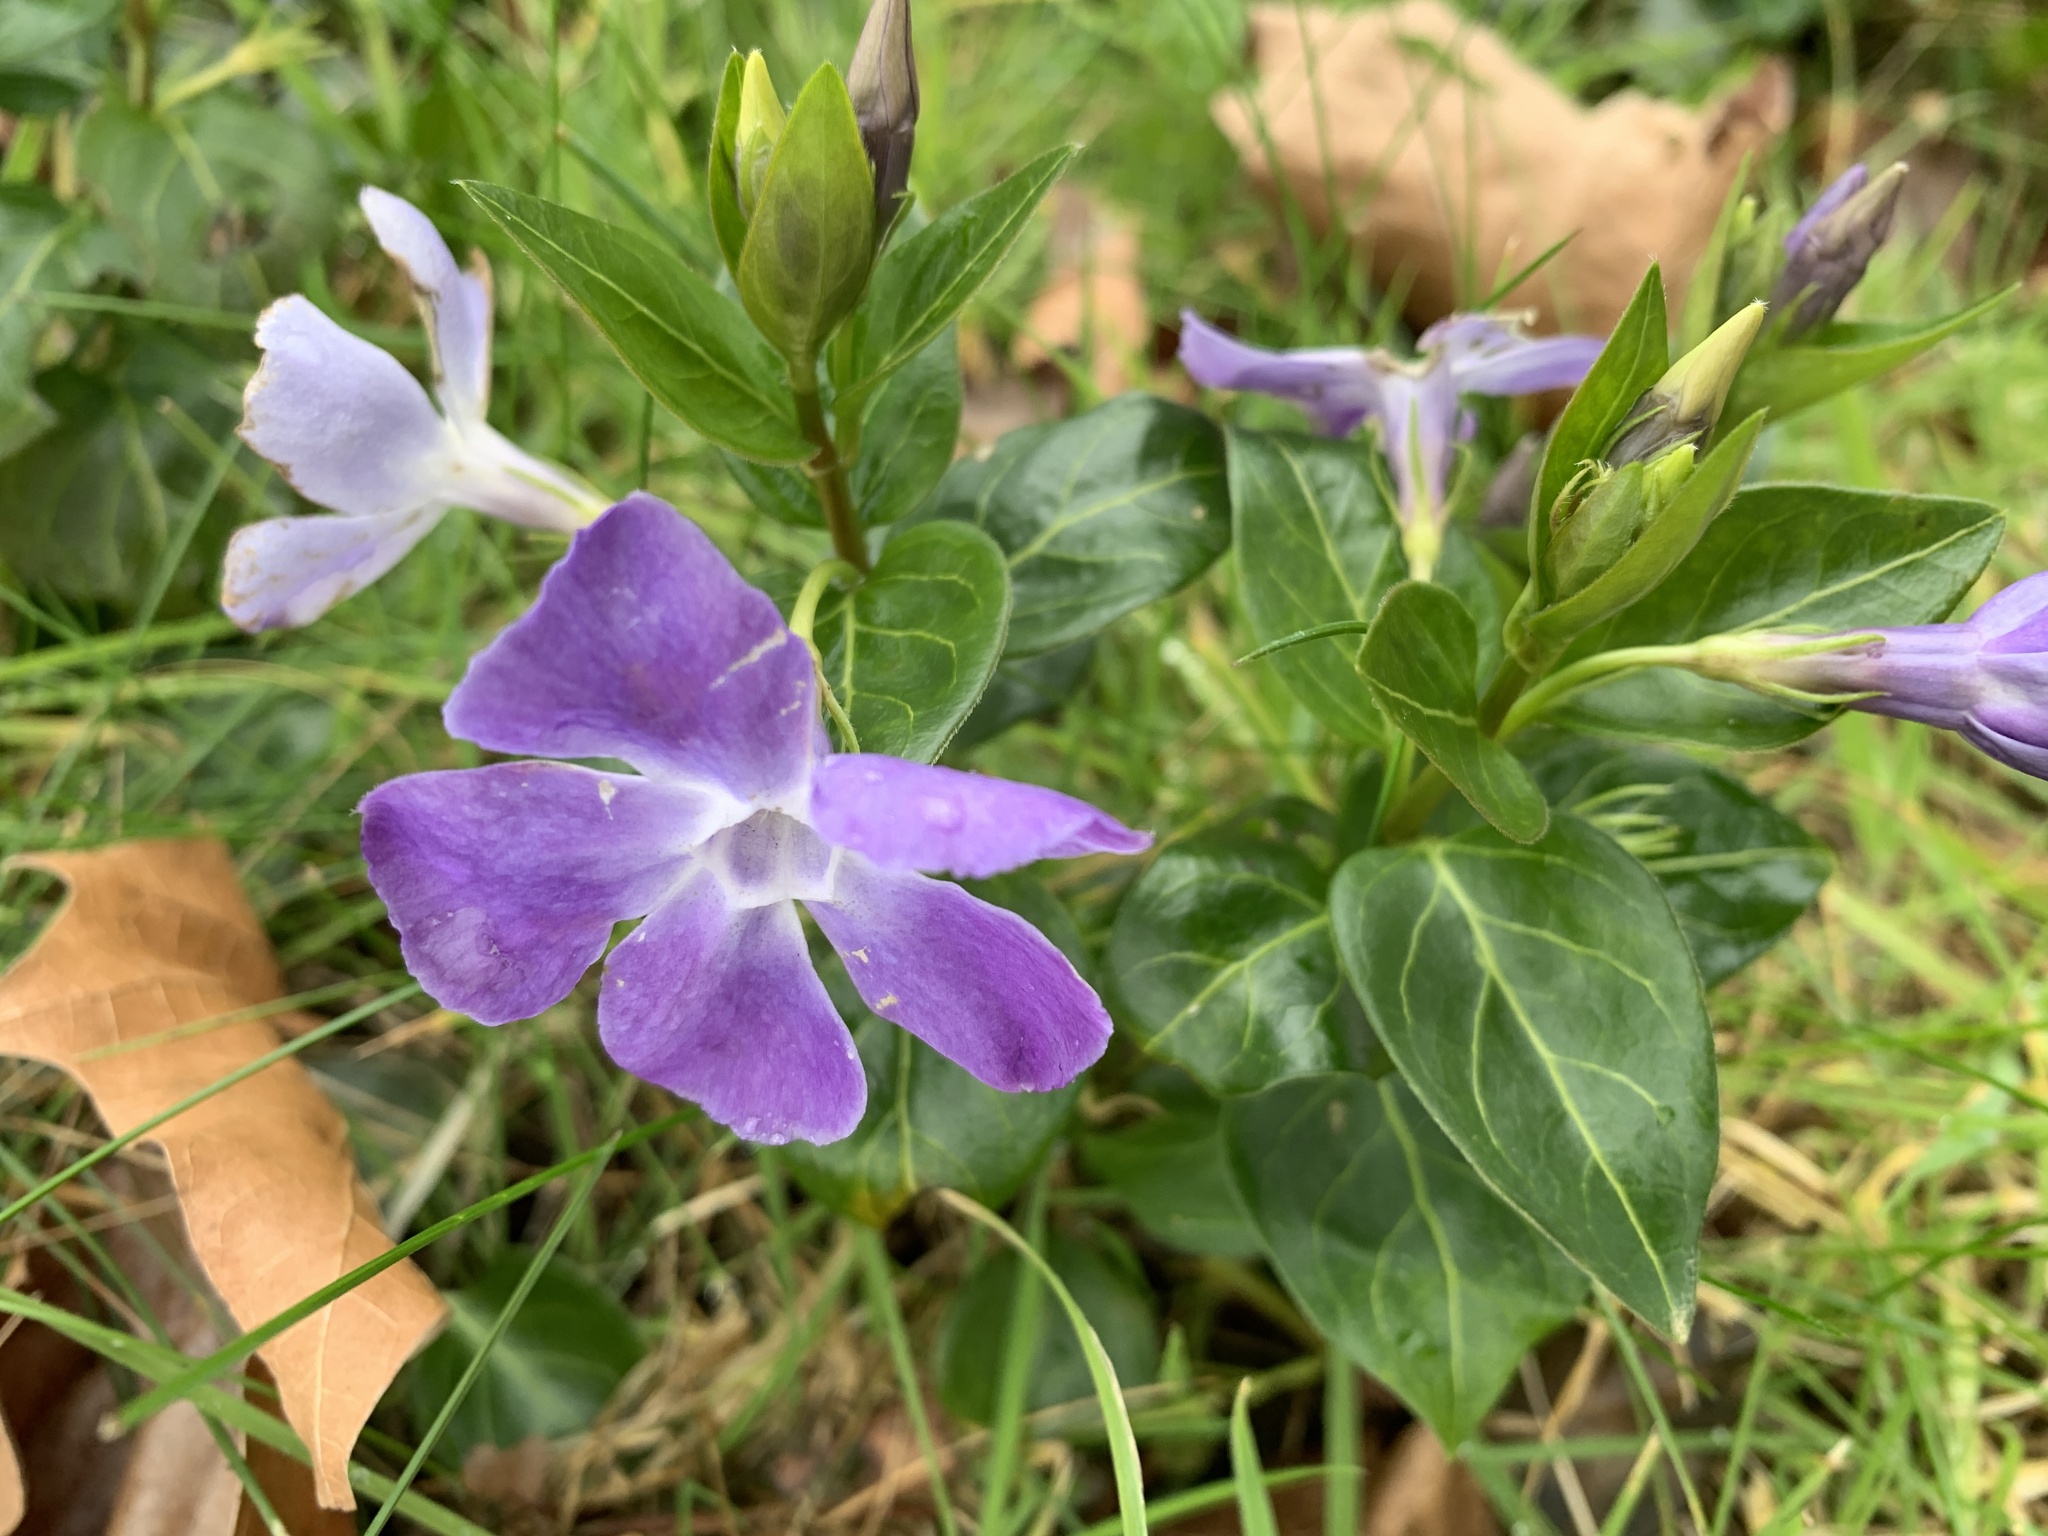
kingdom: Plantae
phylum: Tracheophyta
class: Magnoliopsida
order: Gentianales
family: Apocynaceae
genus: Vinca
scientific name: Vinca major
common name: Greater periwinkle
